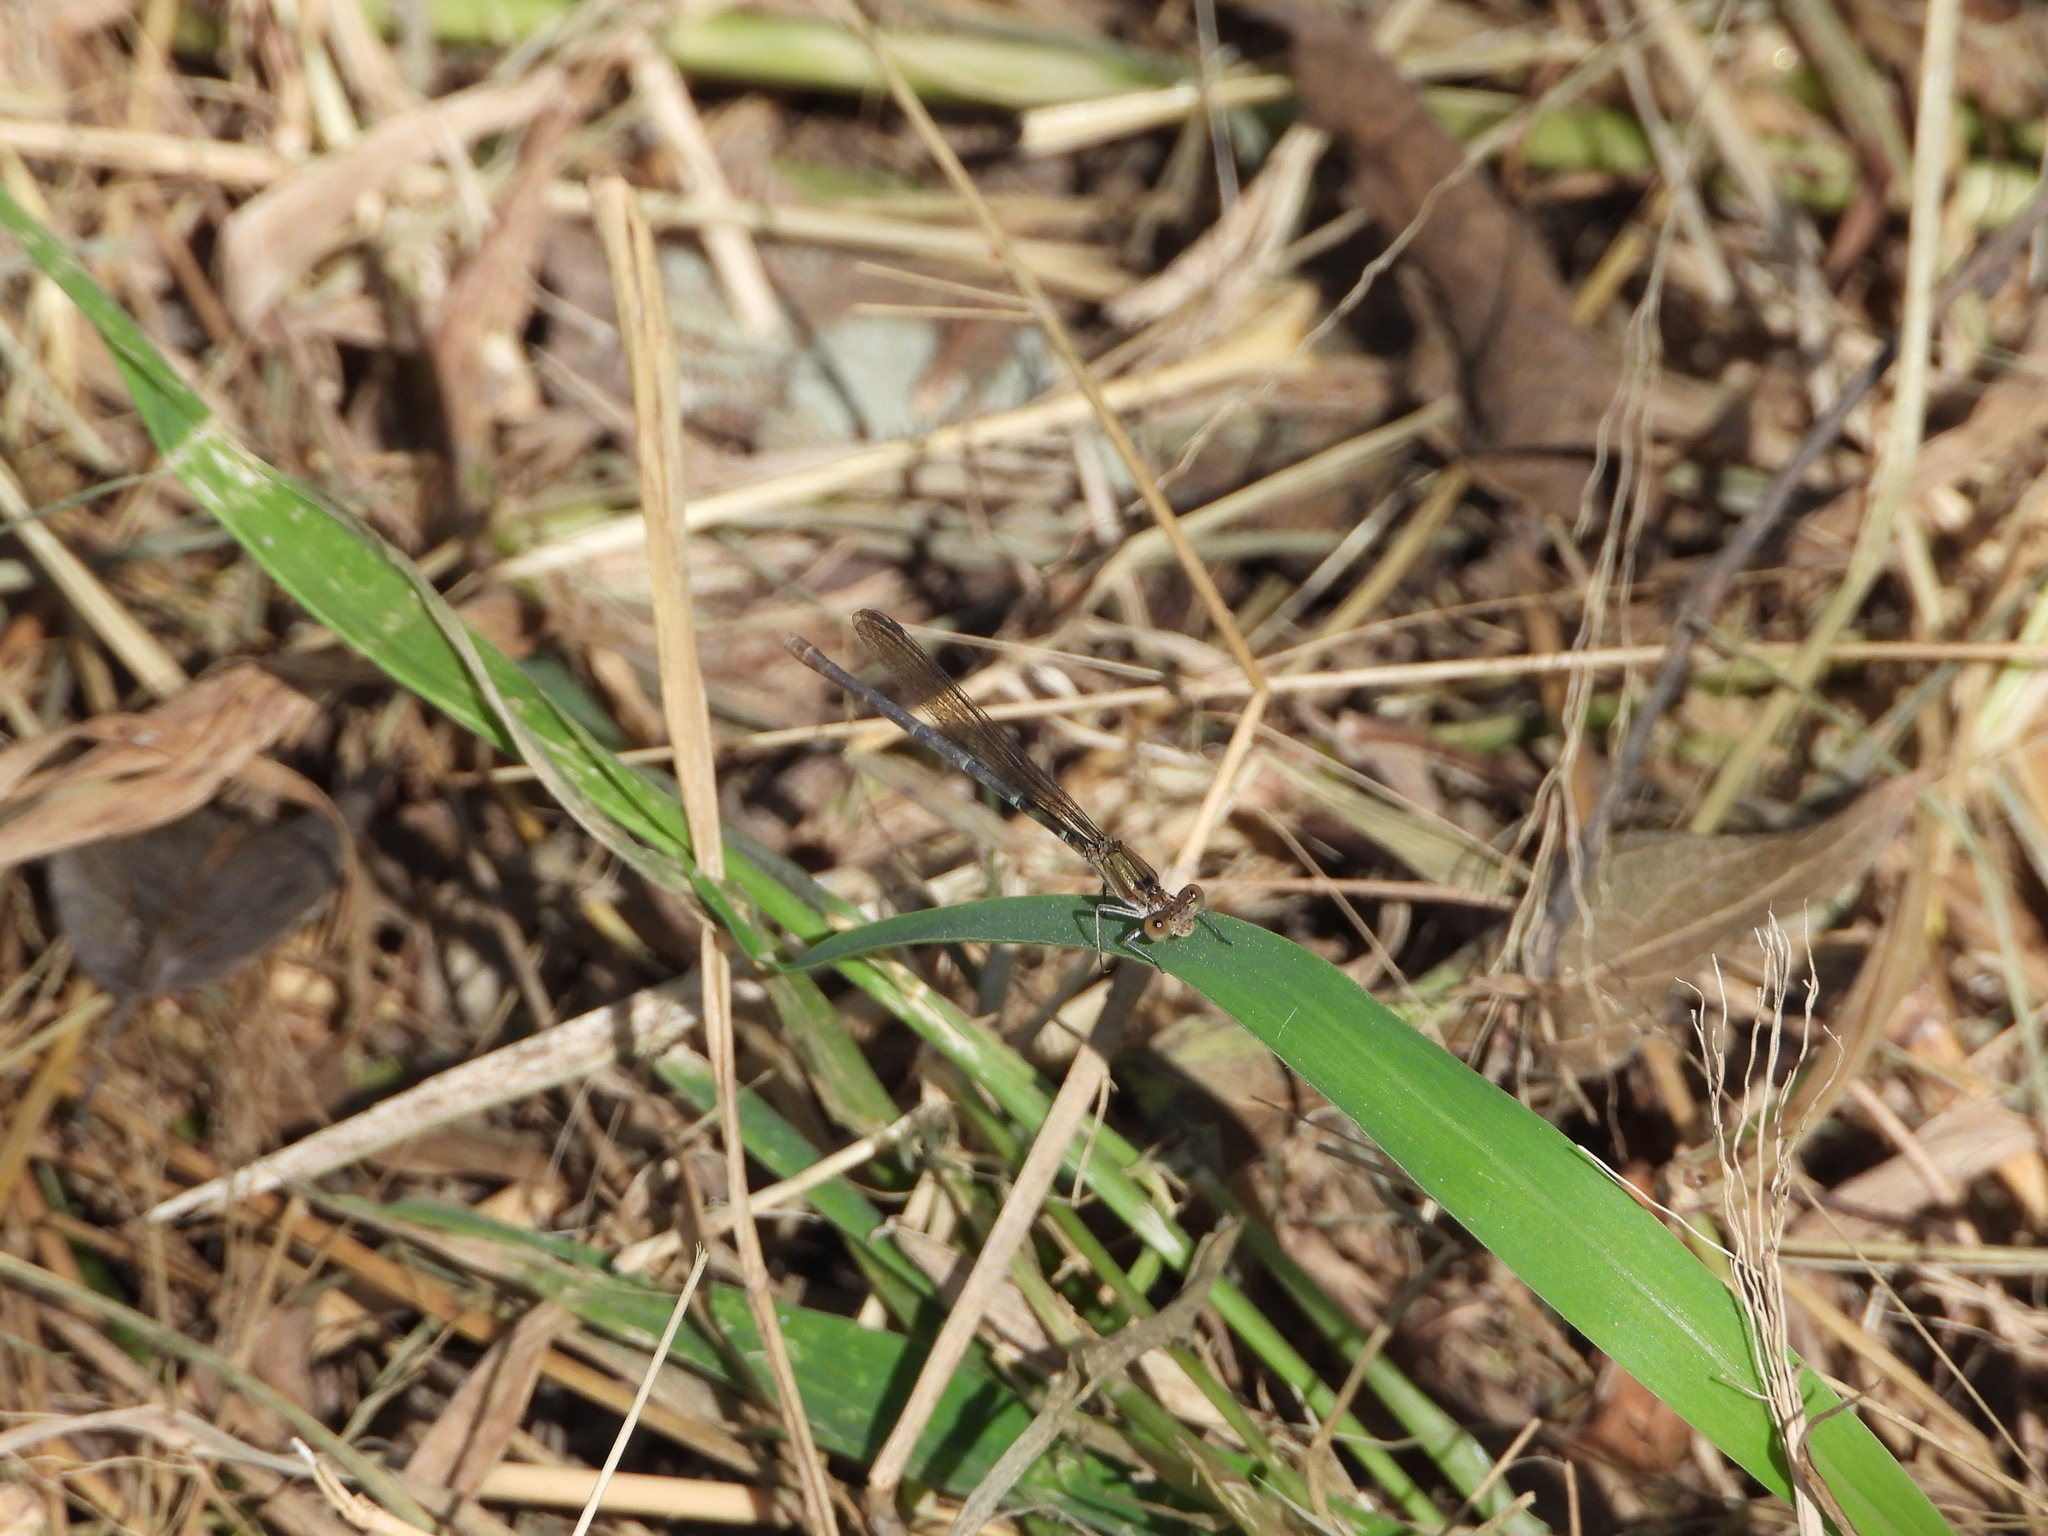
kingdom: Animalia
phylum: Arthropoda
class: Insecta
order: Odonata
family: Coenagrionidae
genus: Argia
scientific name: Argia sedula
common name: Blue-ringed dancer
